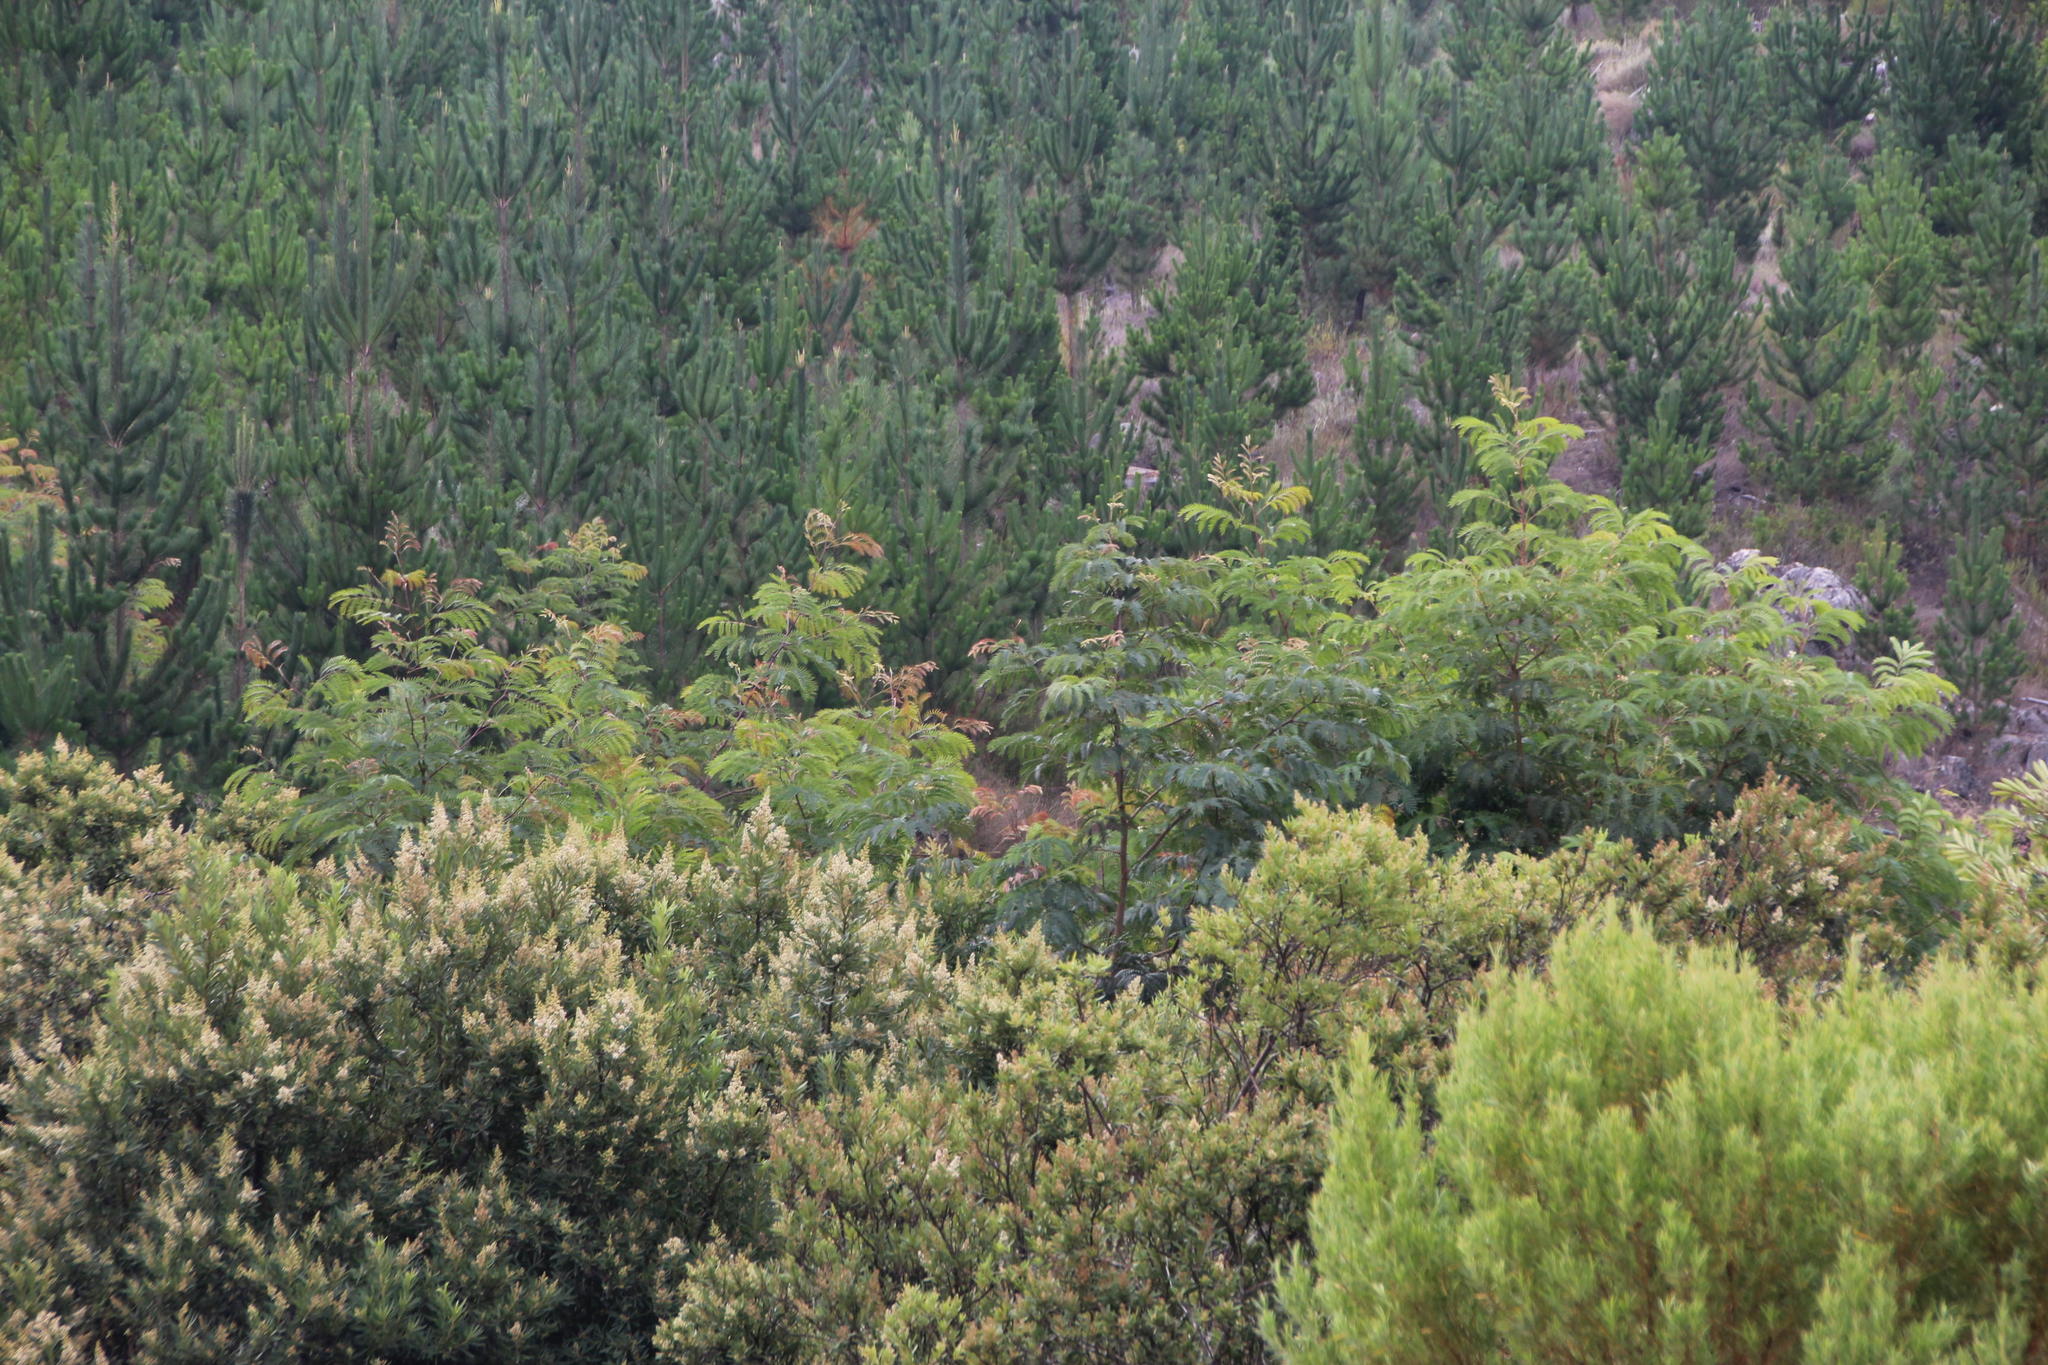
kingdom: Plantae
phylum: Tracheophyta
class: Magnoliopsida
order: Fabales
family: Fabaceae
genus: Acacia
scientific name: Acacia elata
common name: Cedar wattle
